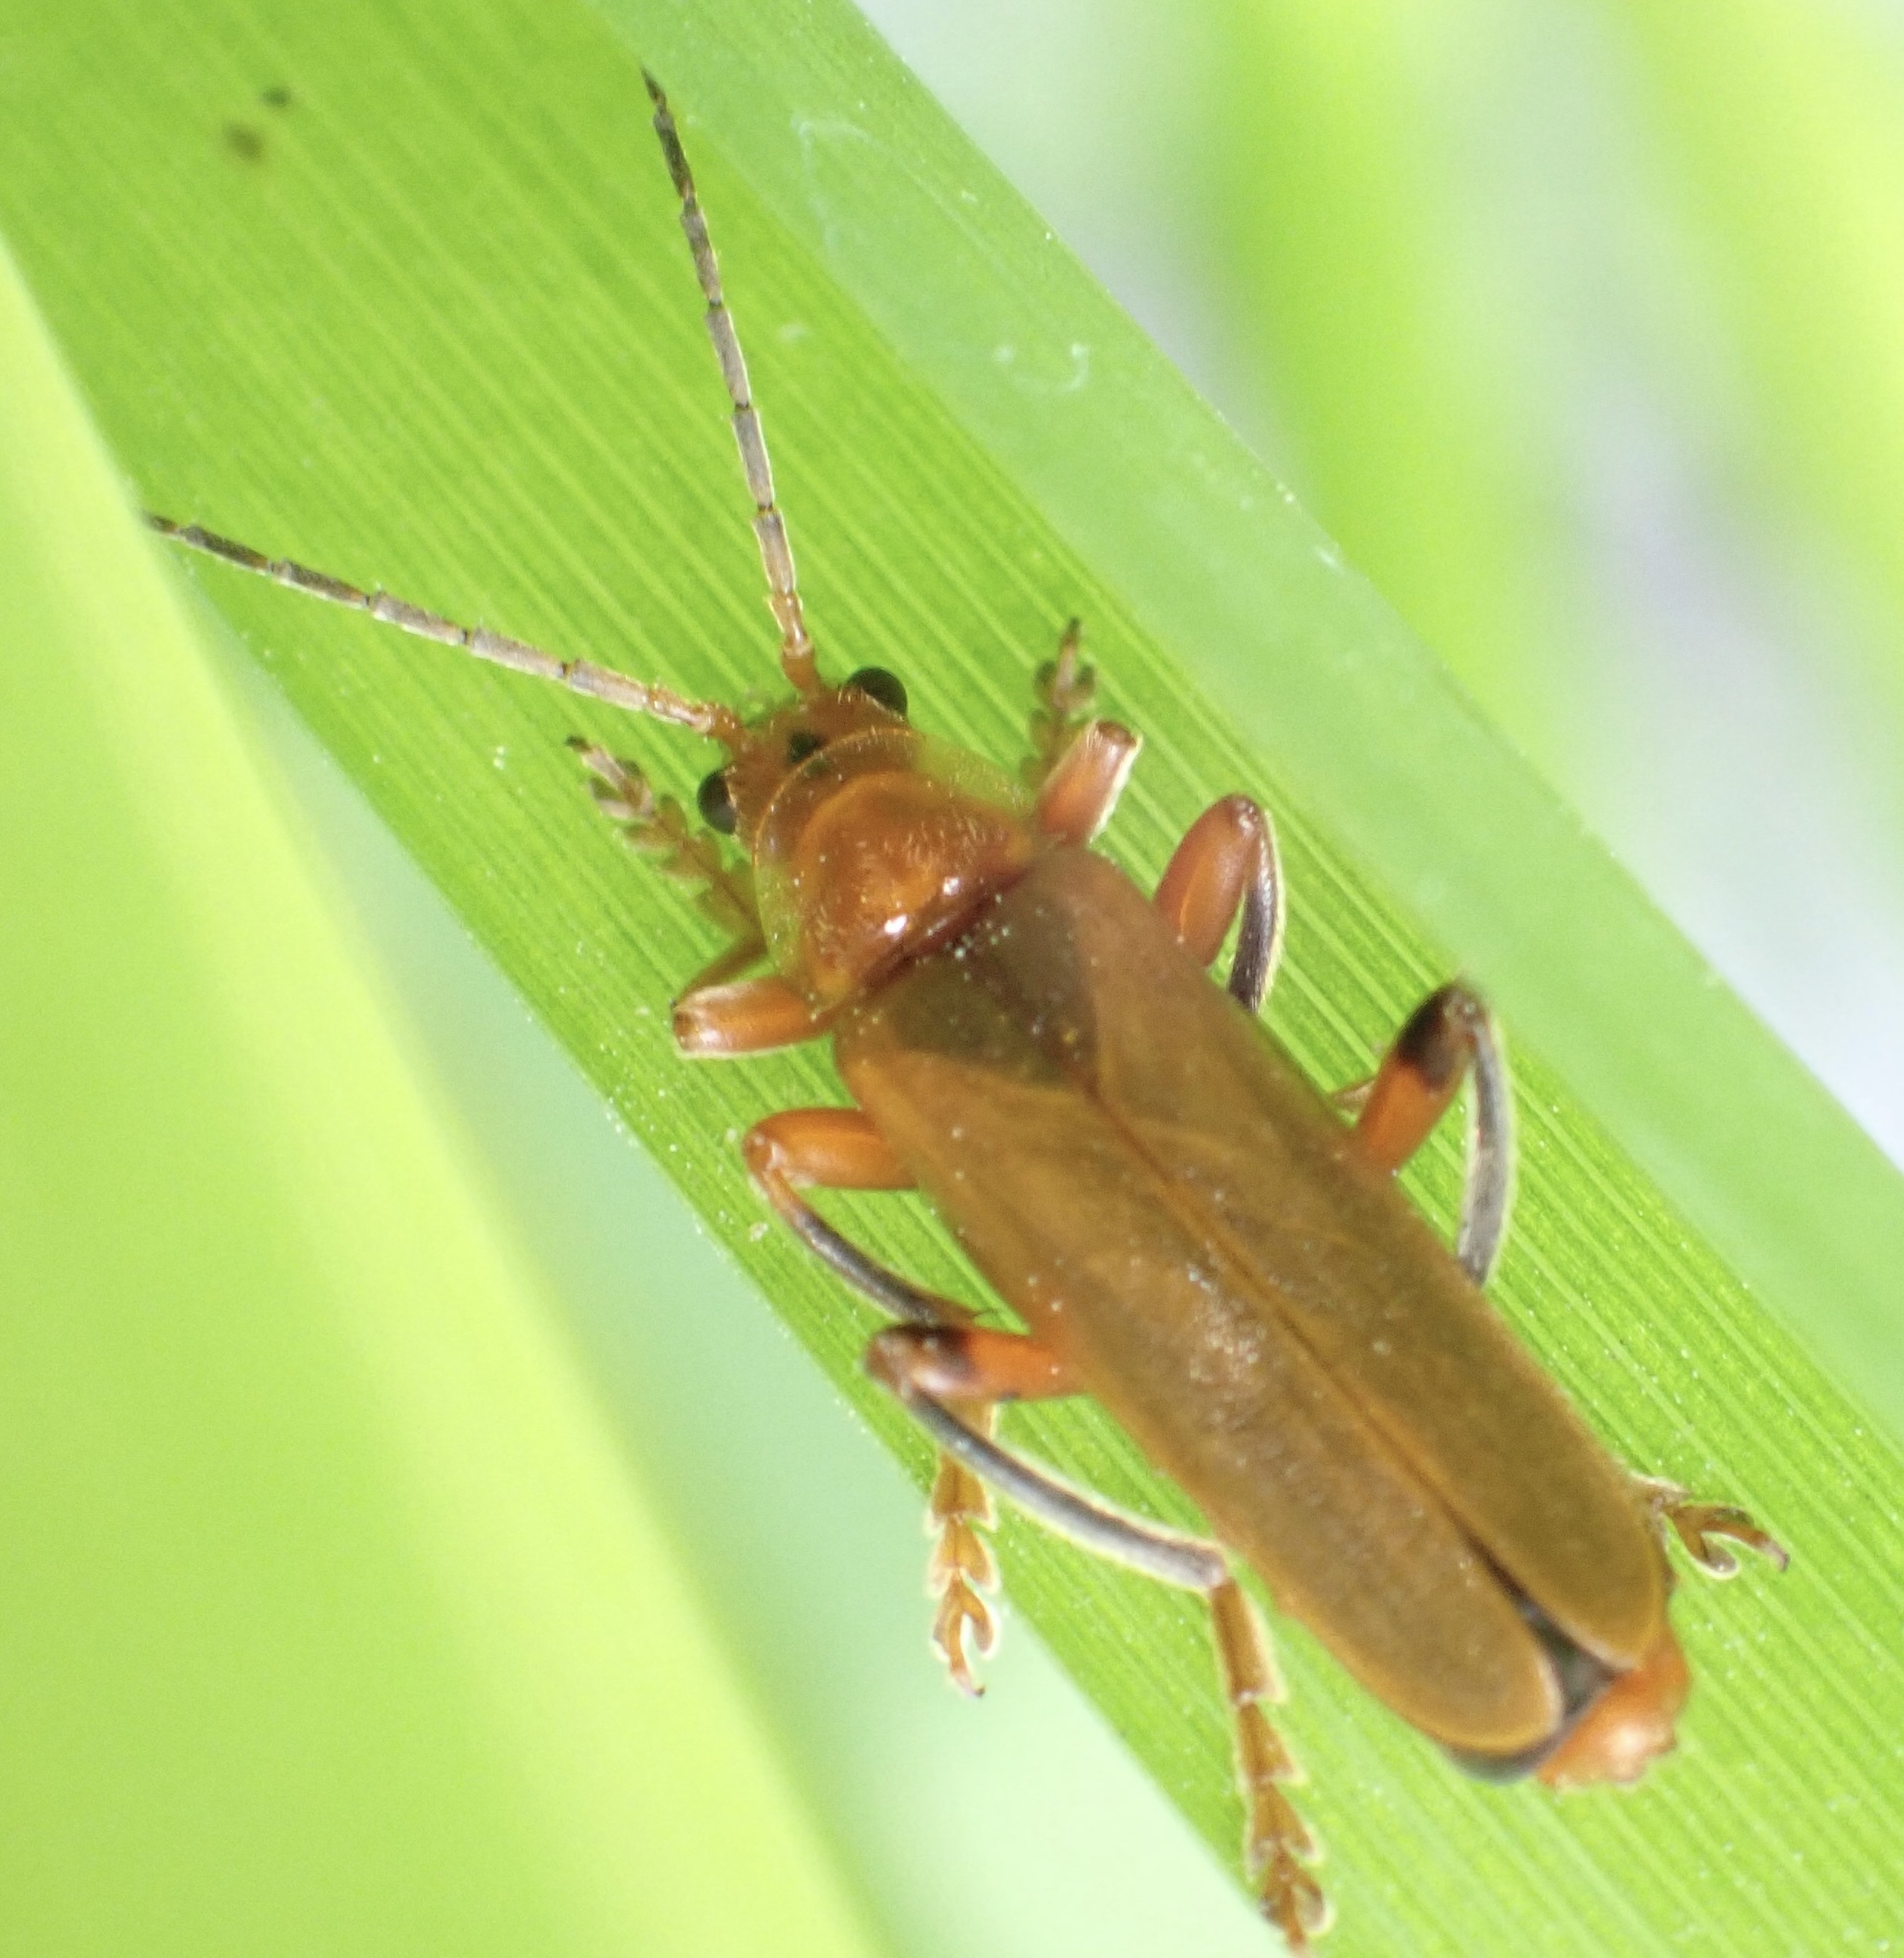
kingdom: Animalia
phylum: Arthropoda
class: Insecta
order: Coleoptera
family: Cantharidae
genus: Cantharis
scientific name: Cantharis livida
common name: Livid soldier beetle
